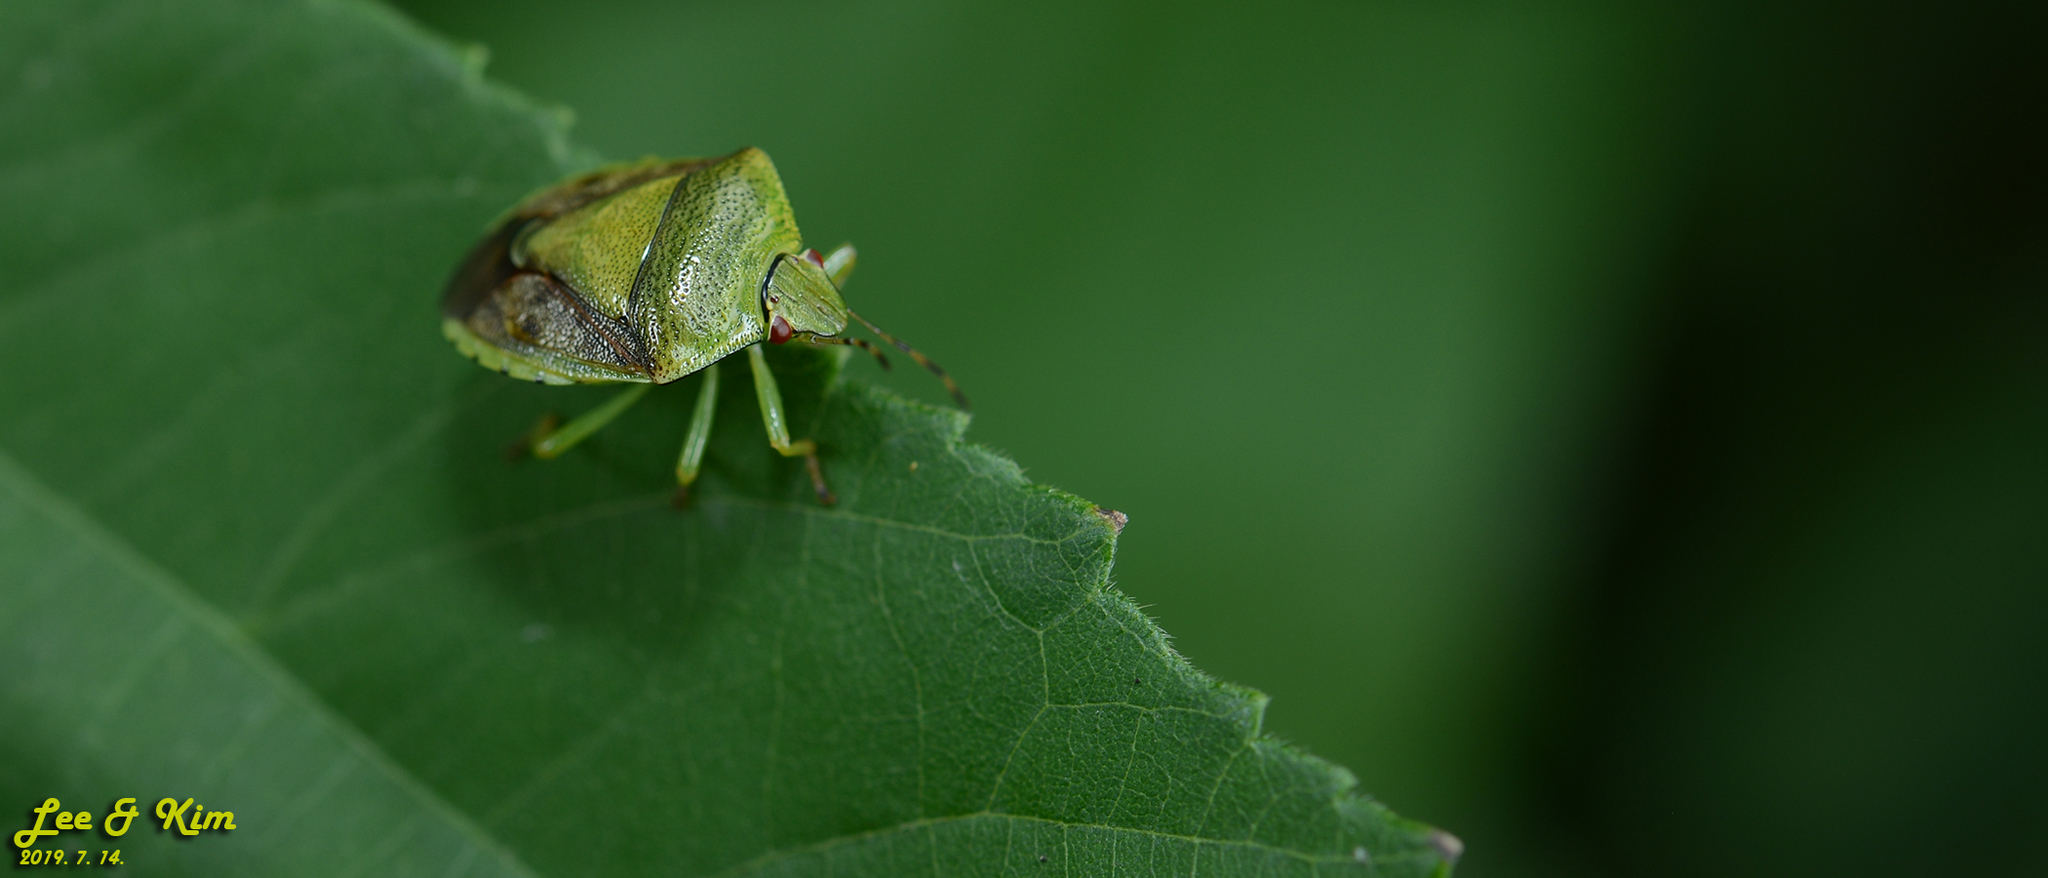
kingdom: Animalia
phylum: Arthropoda
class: Insecta
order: Hemiptera
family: Pentatomidae
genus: Plautia
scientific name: Plautia stali
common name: Stink bug
